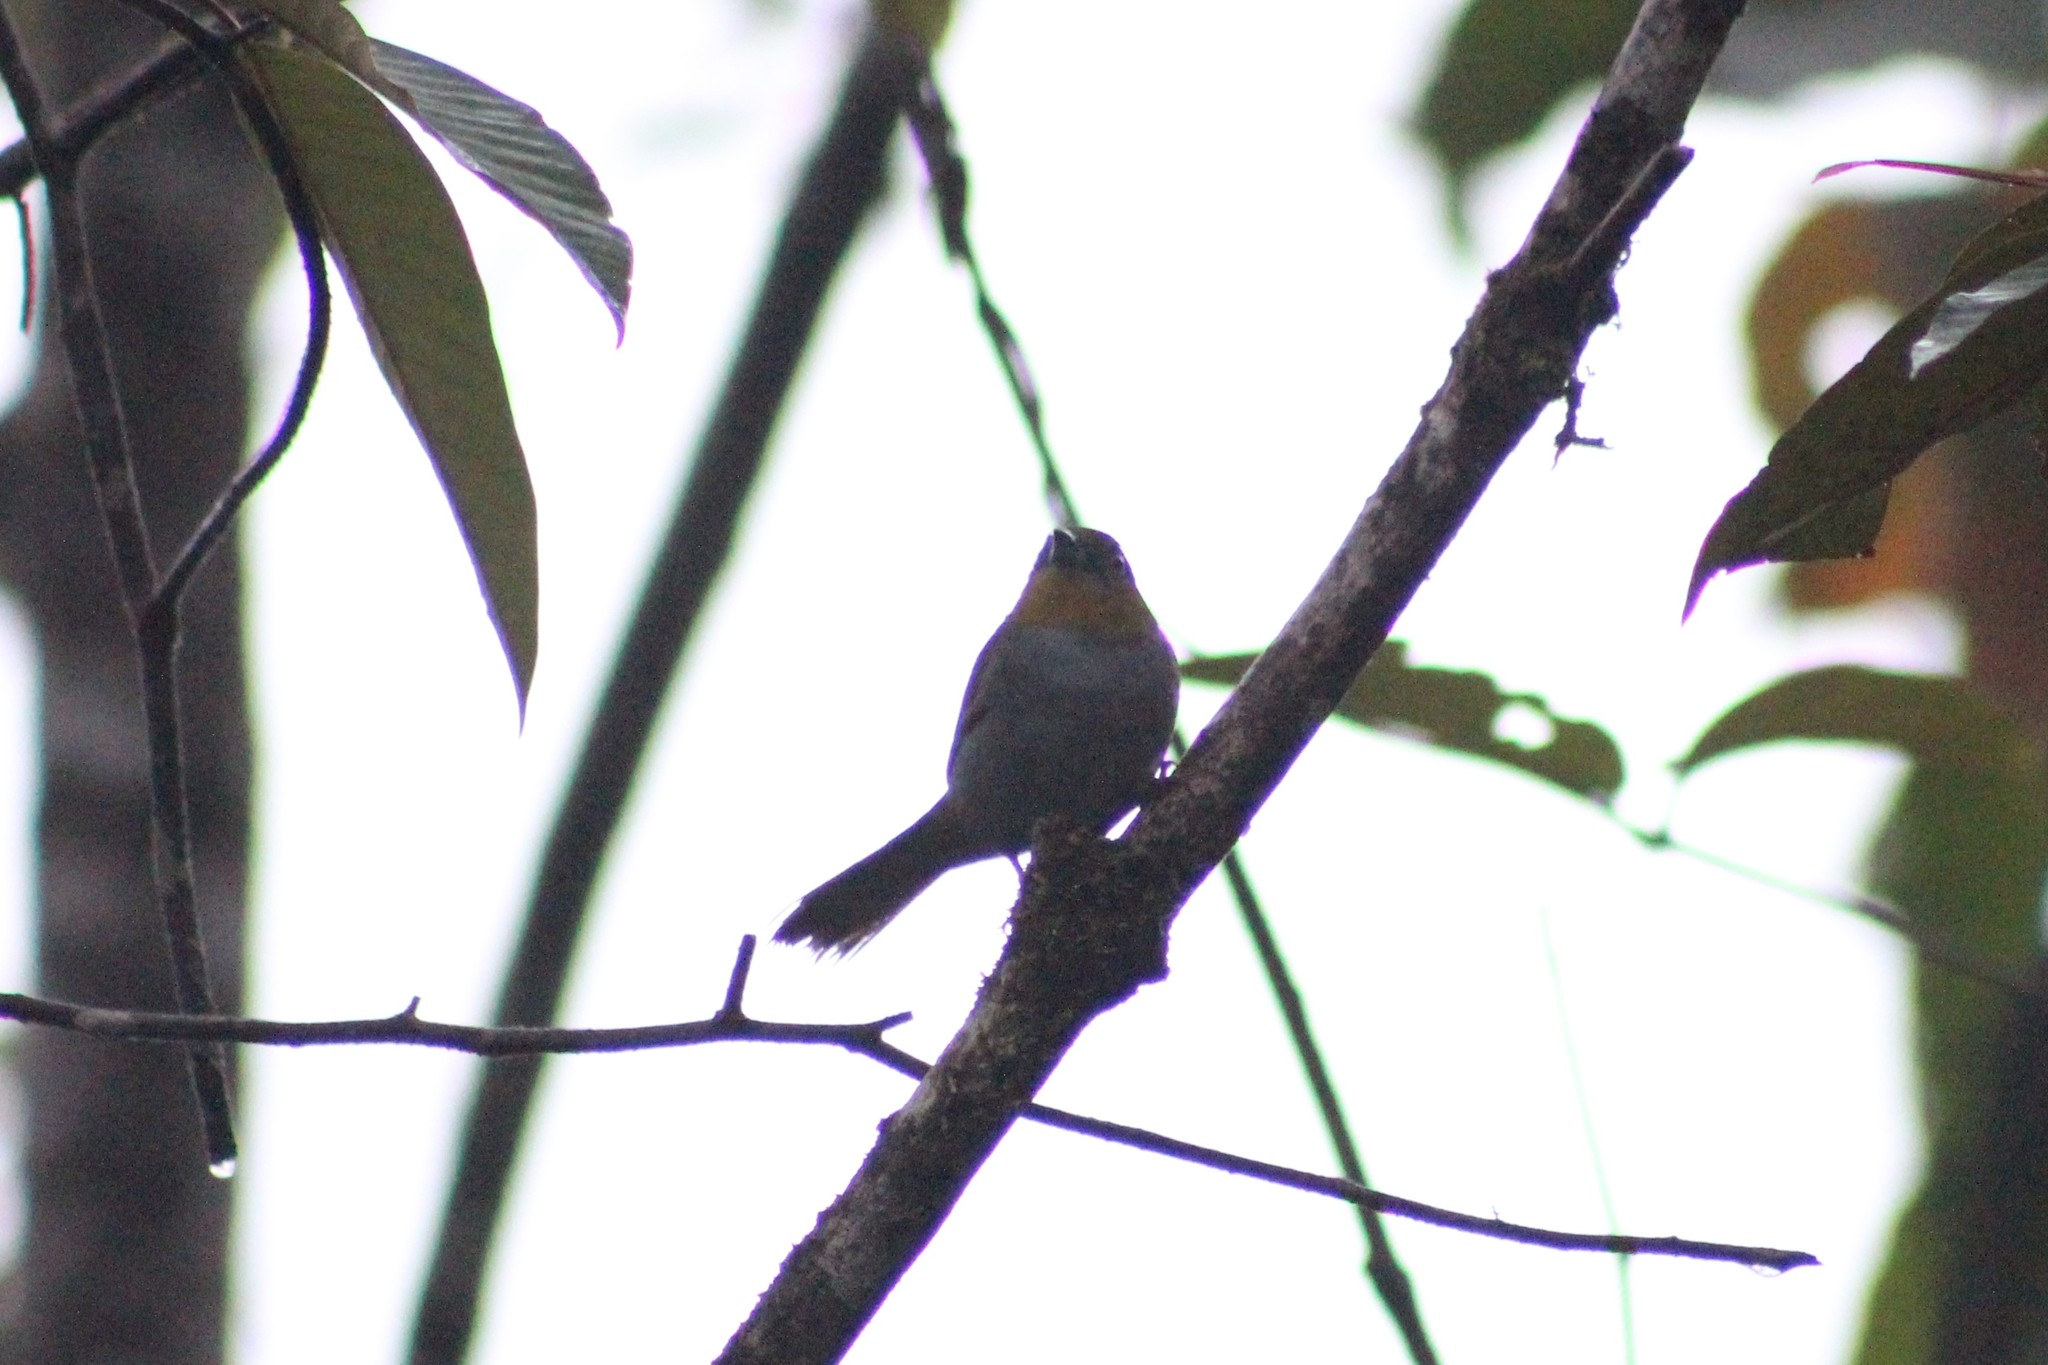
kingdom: Animalia
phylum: Chordata
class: Aves
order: Passeriformes
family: Passerellidae
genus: Chlorospingus
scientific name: Chlorospingus flavigularis
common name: Yellow-throated bush-tanager
